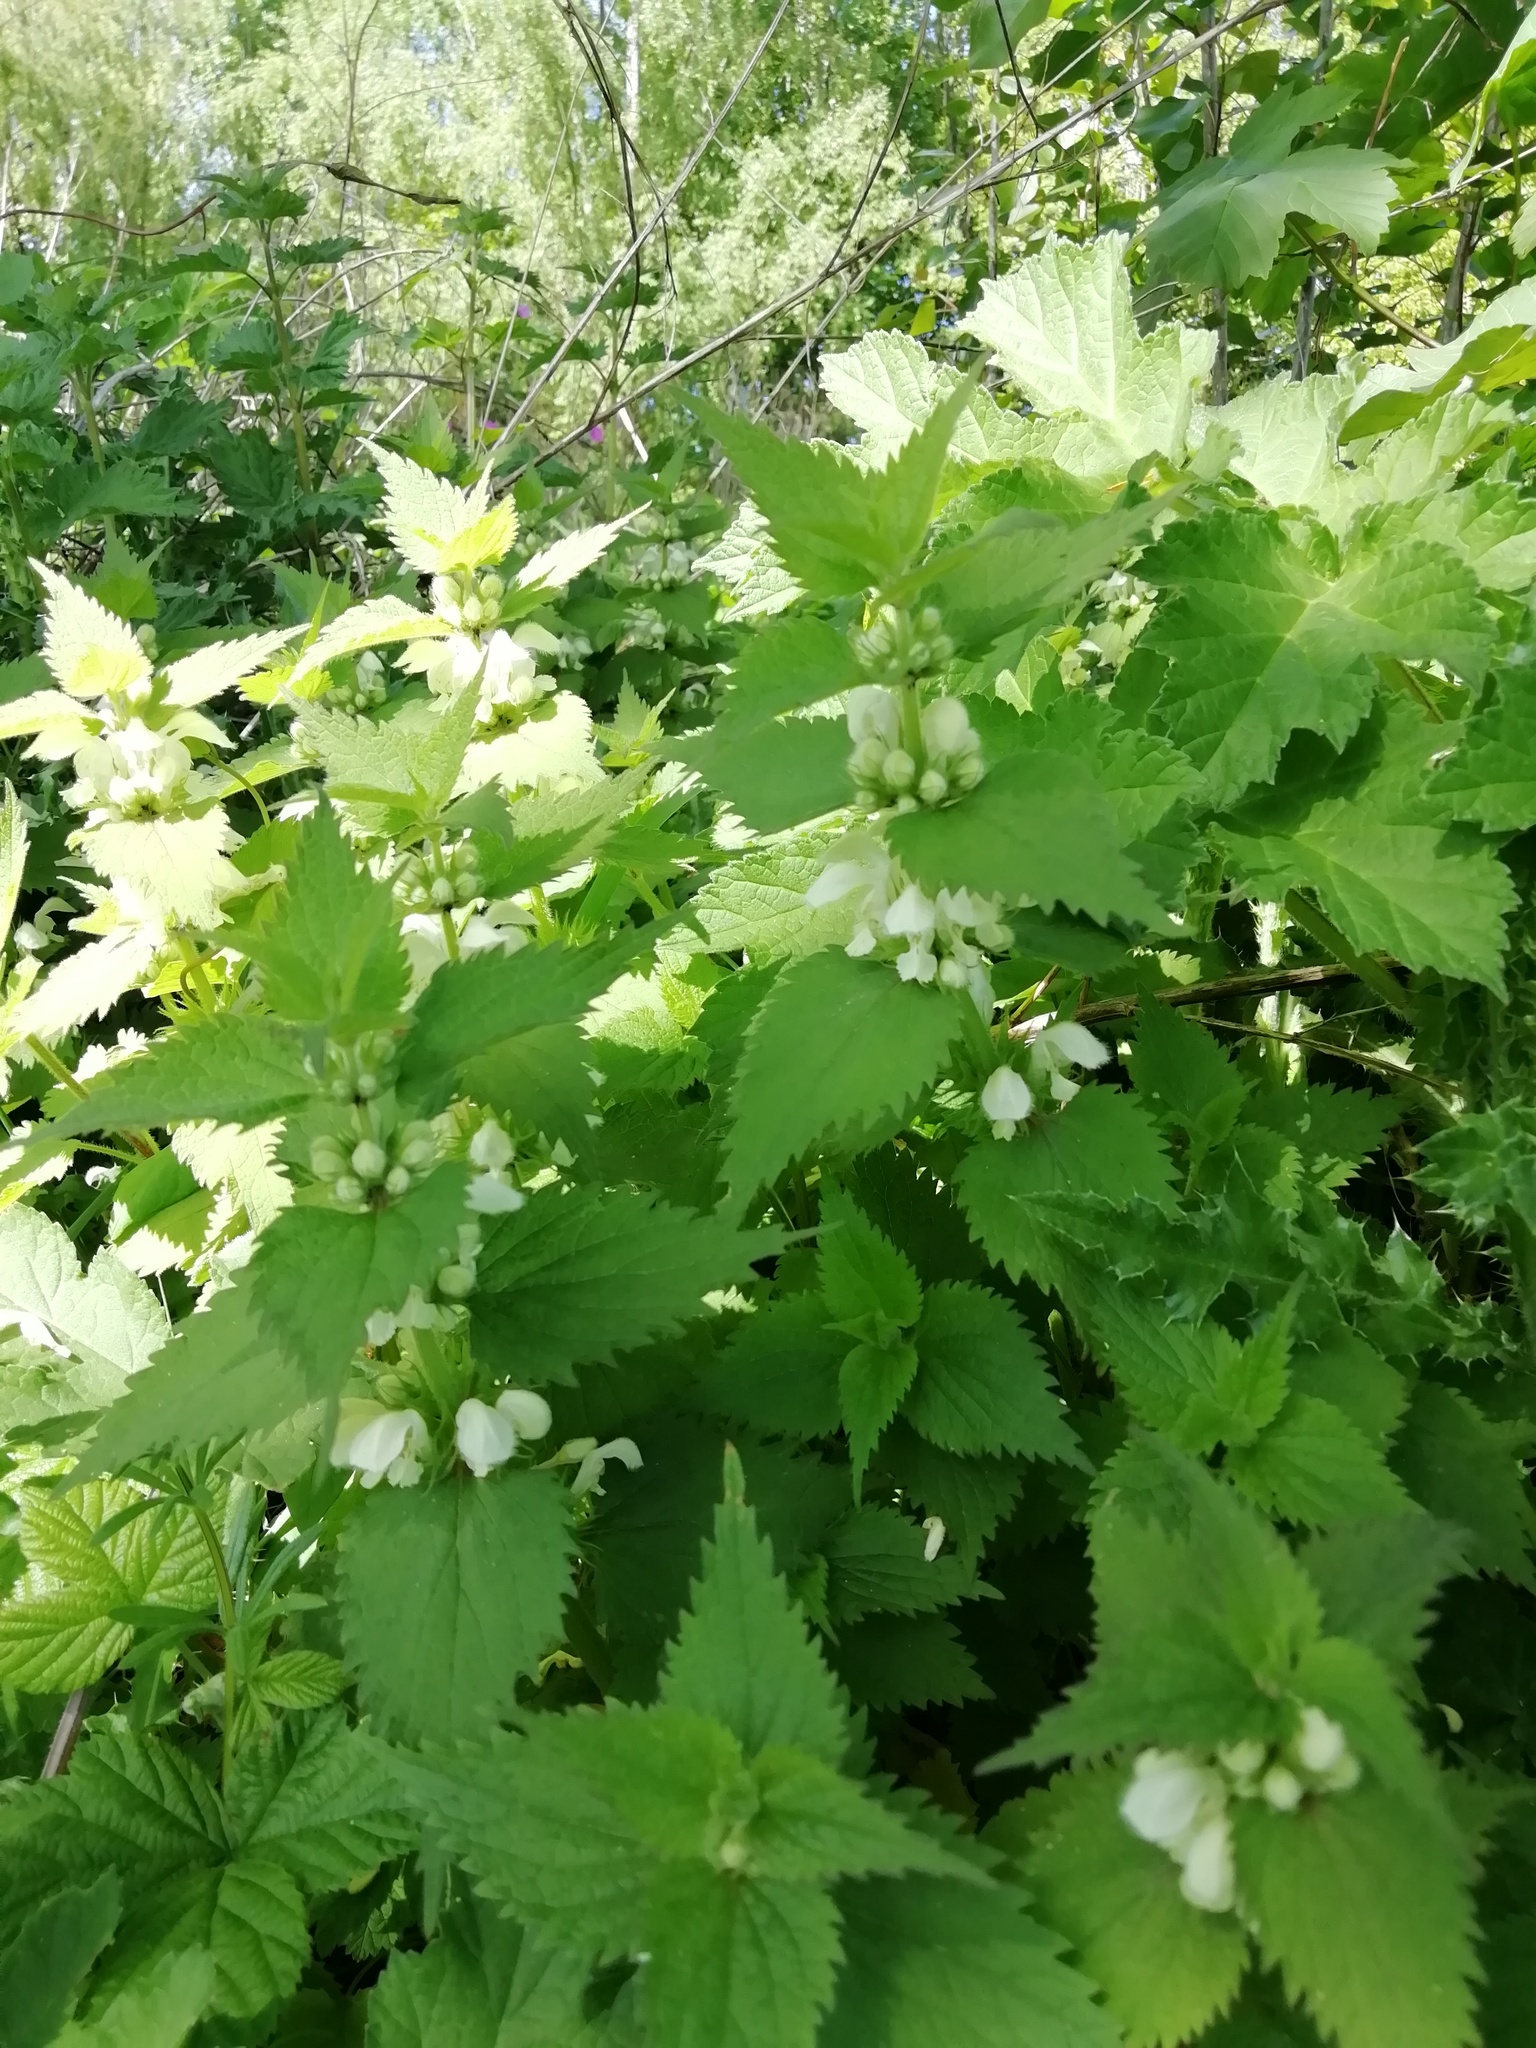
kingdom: Plantae
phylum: Tracheophyta
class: Magnoliopsida
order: Lamiales
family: Lamiaceae
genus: Lamium
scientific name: Lamium album
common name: White dead-nettle
